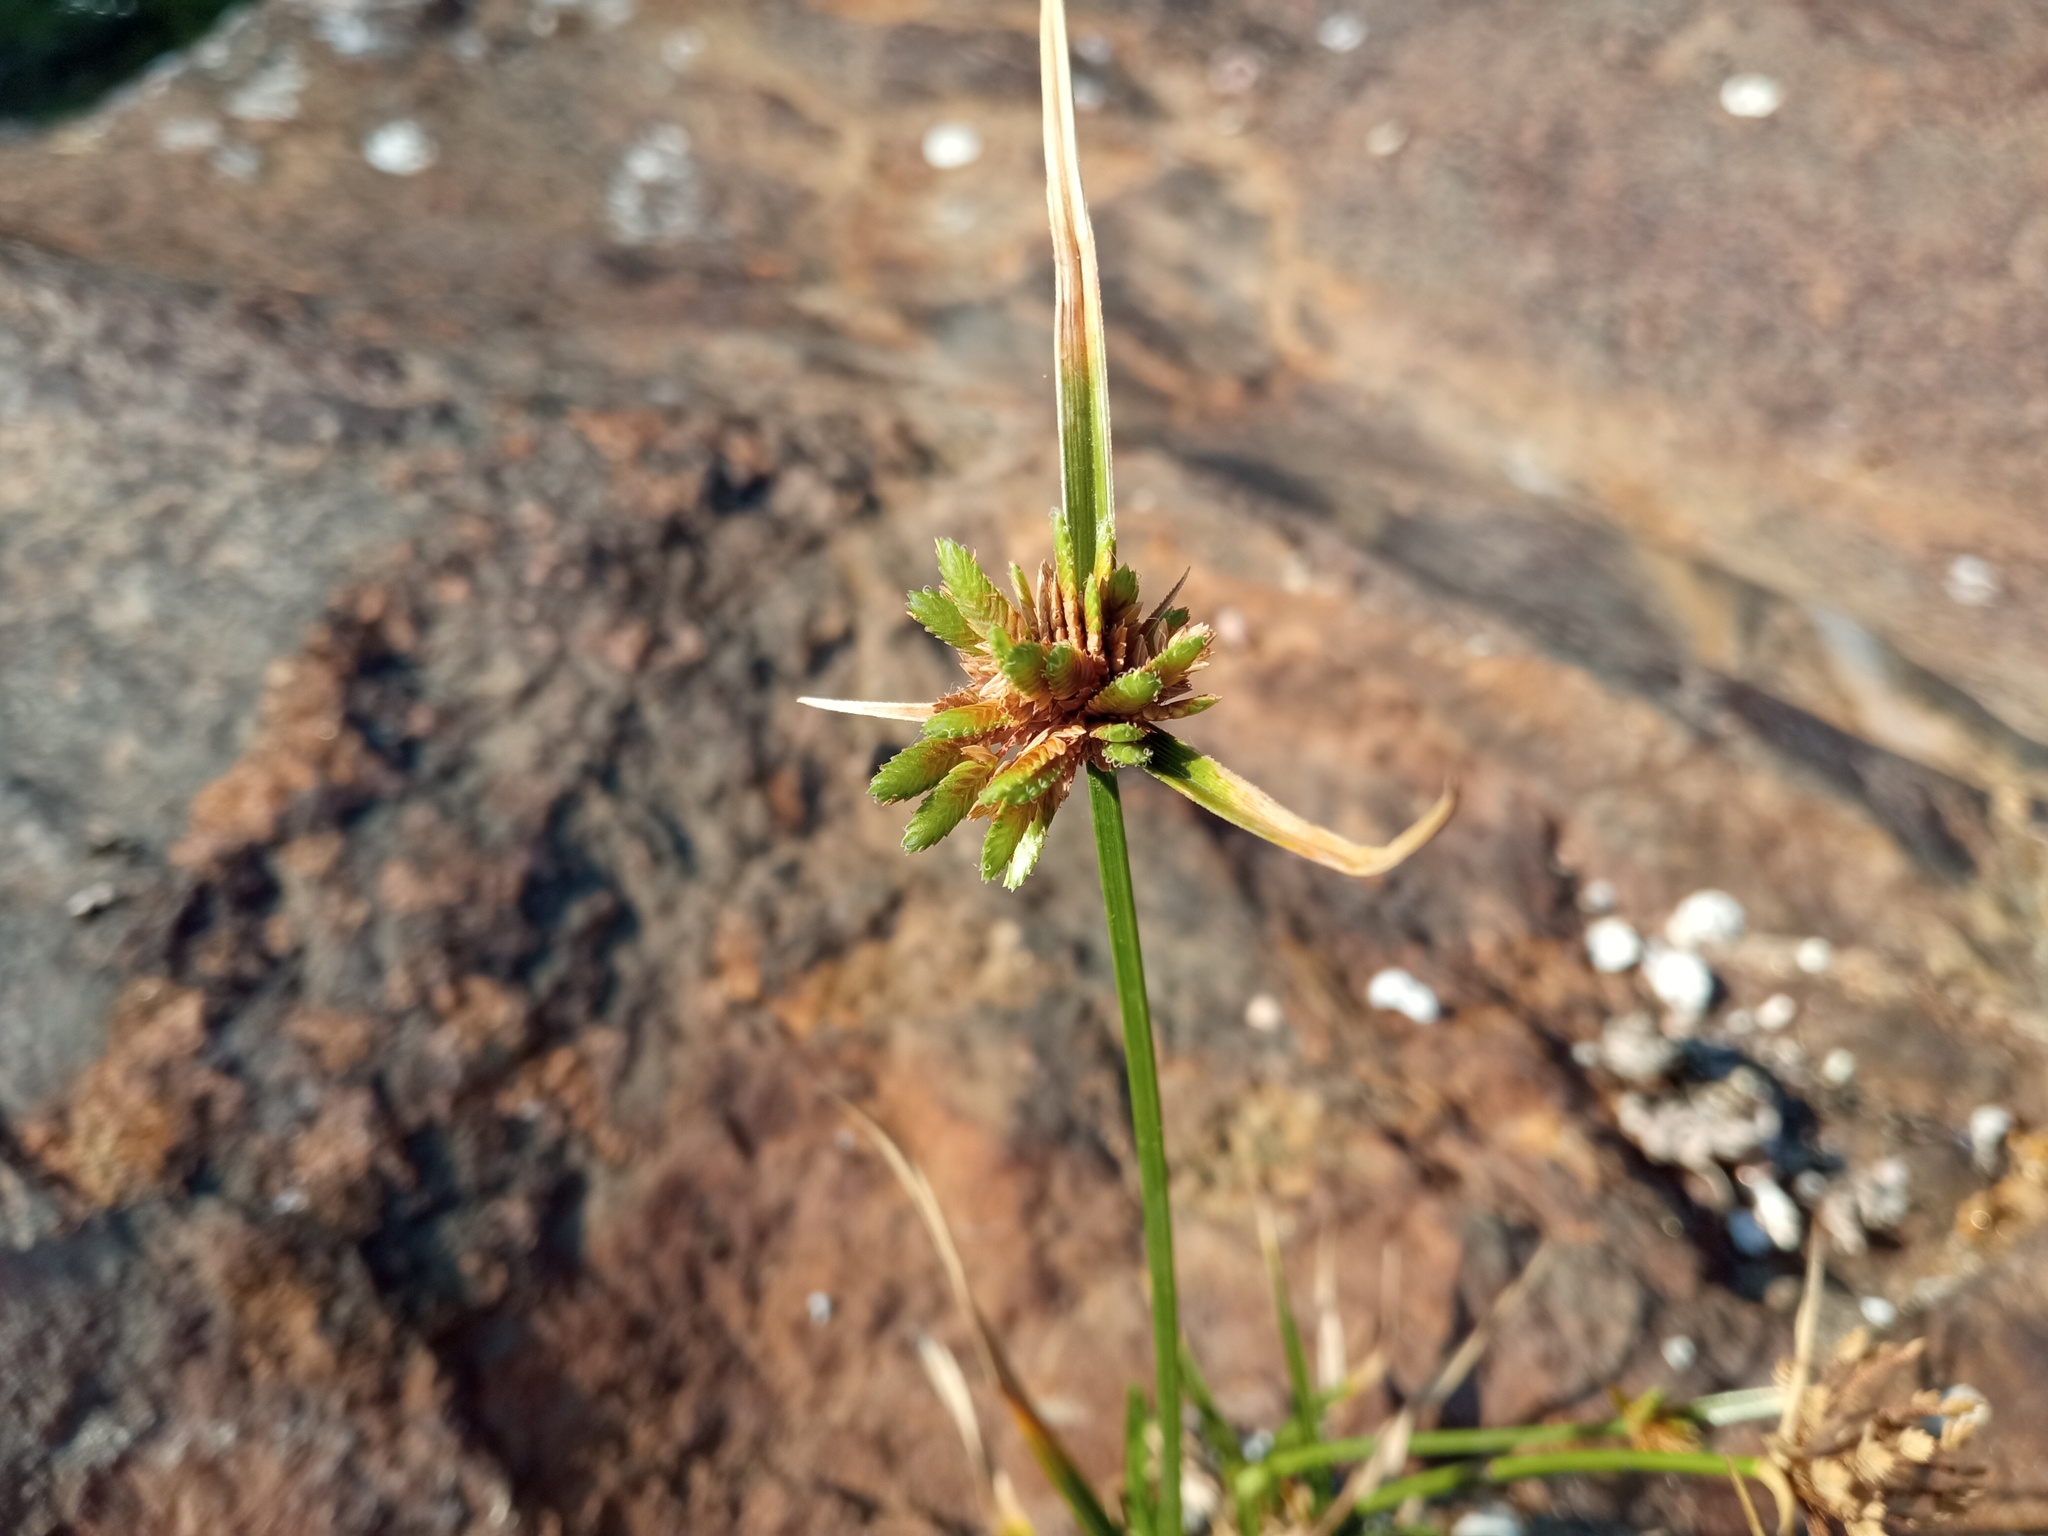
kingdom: Plantae
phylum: Tracheophyta
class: Liliopsida
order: Poales
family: Cyperaceae
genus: Cyperus
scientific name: Cyperus eragrostis
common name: Tall flatsedge
